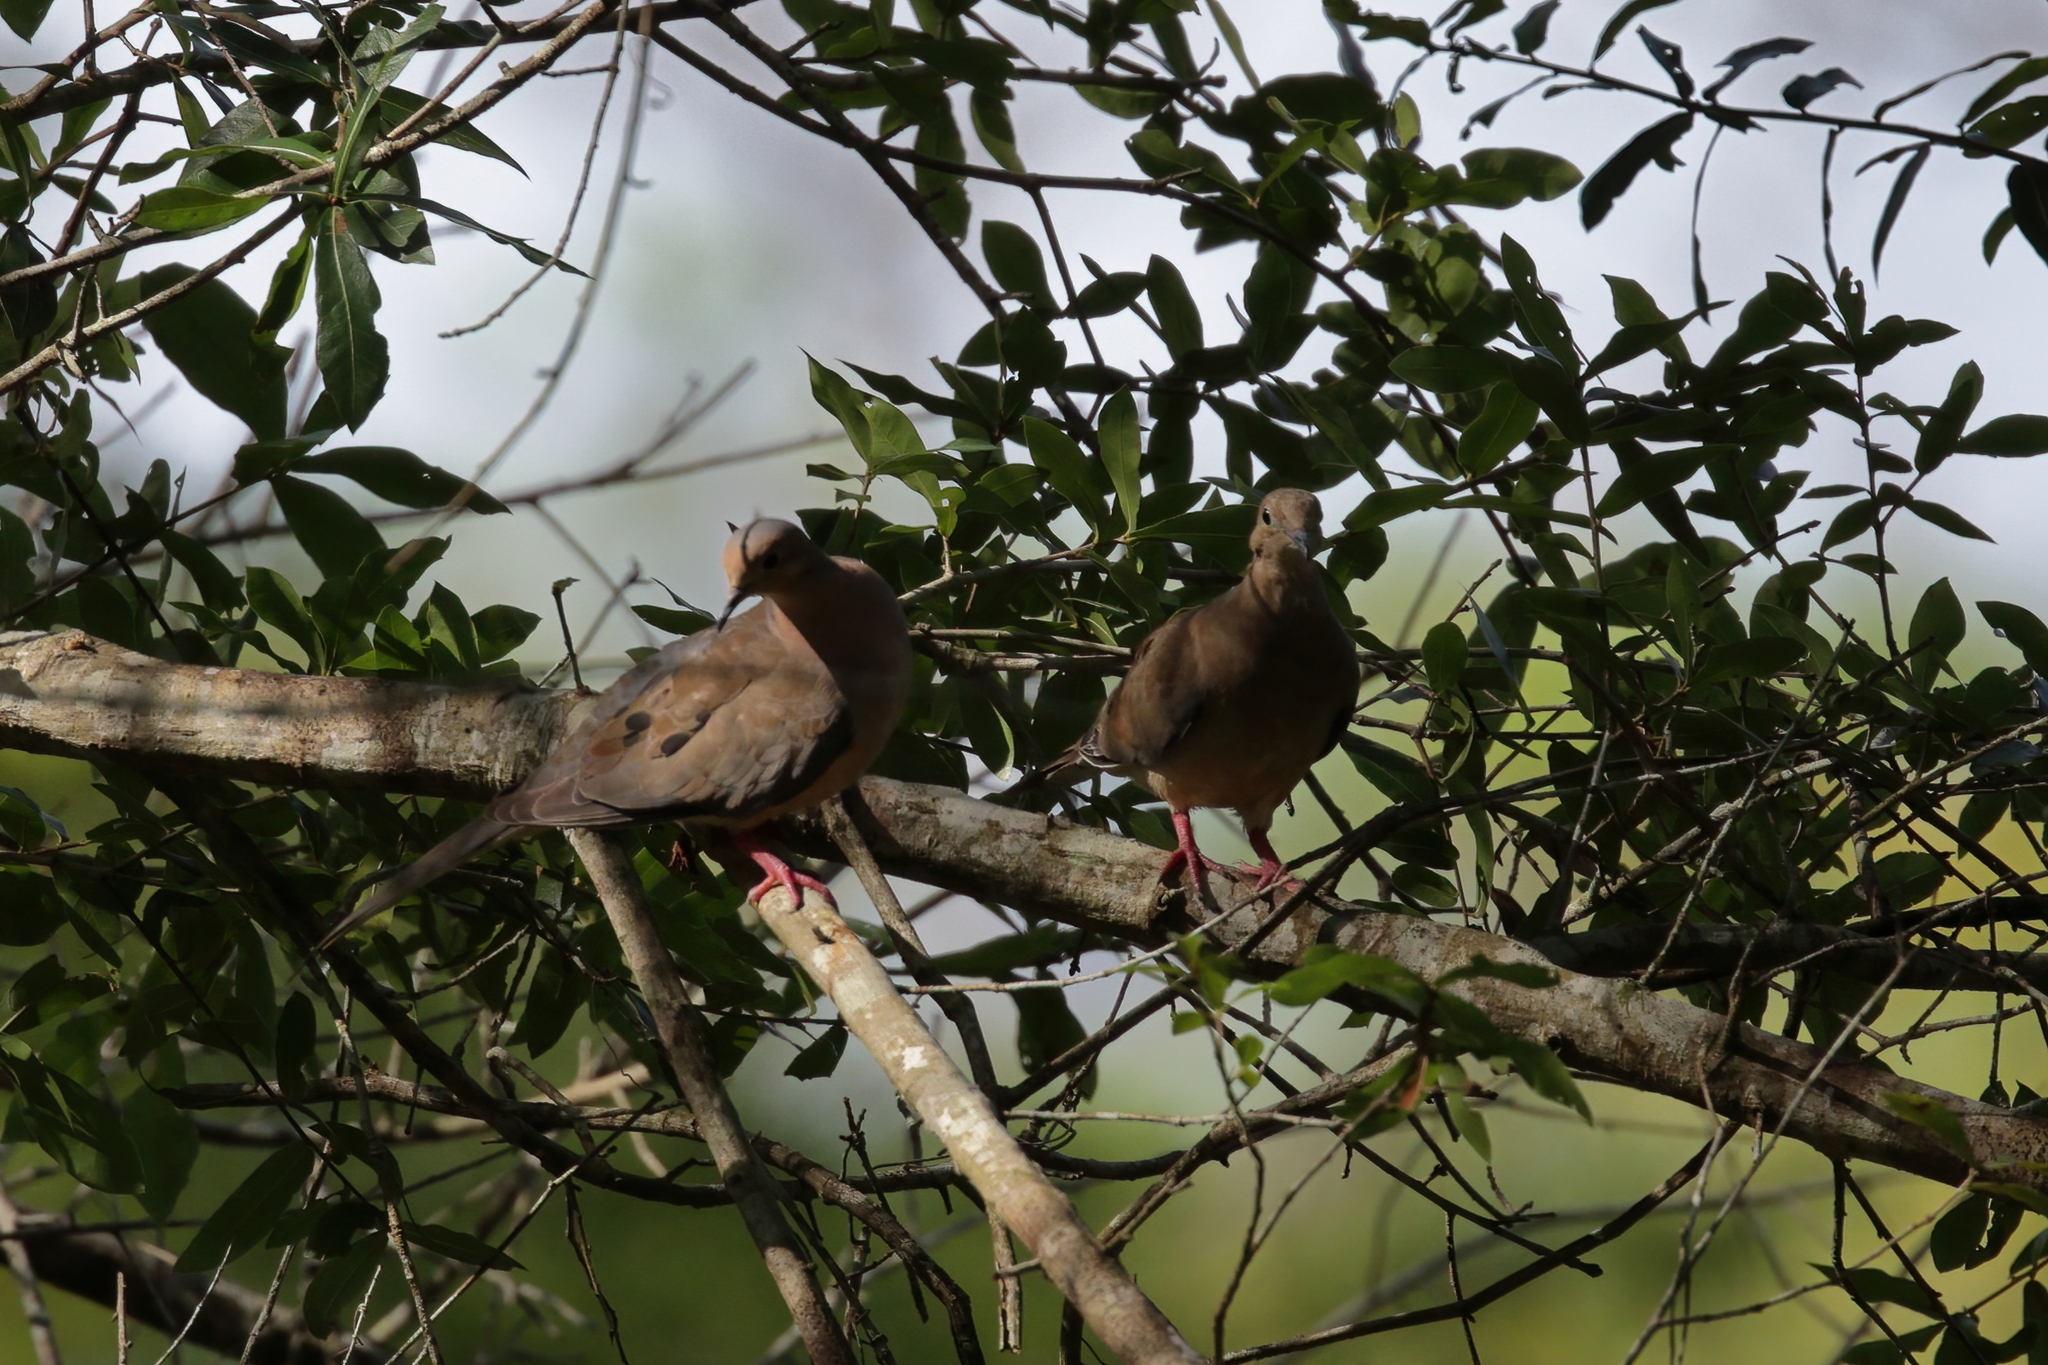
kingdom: Animalia
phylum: Chordata
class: Aves
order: Columbiformes
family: Columbidae
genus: Zenaida
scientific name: Zenaida macroura
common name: Mourning dove
